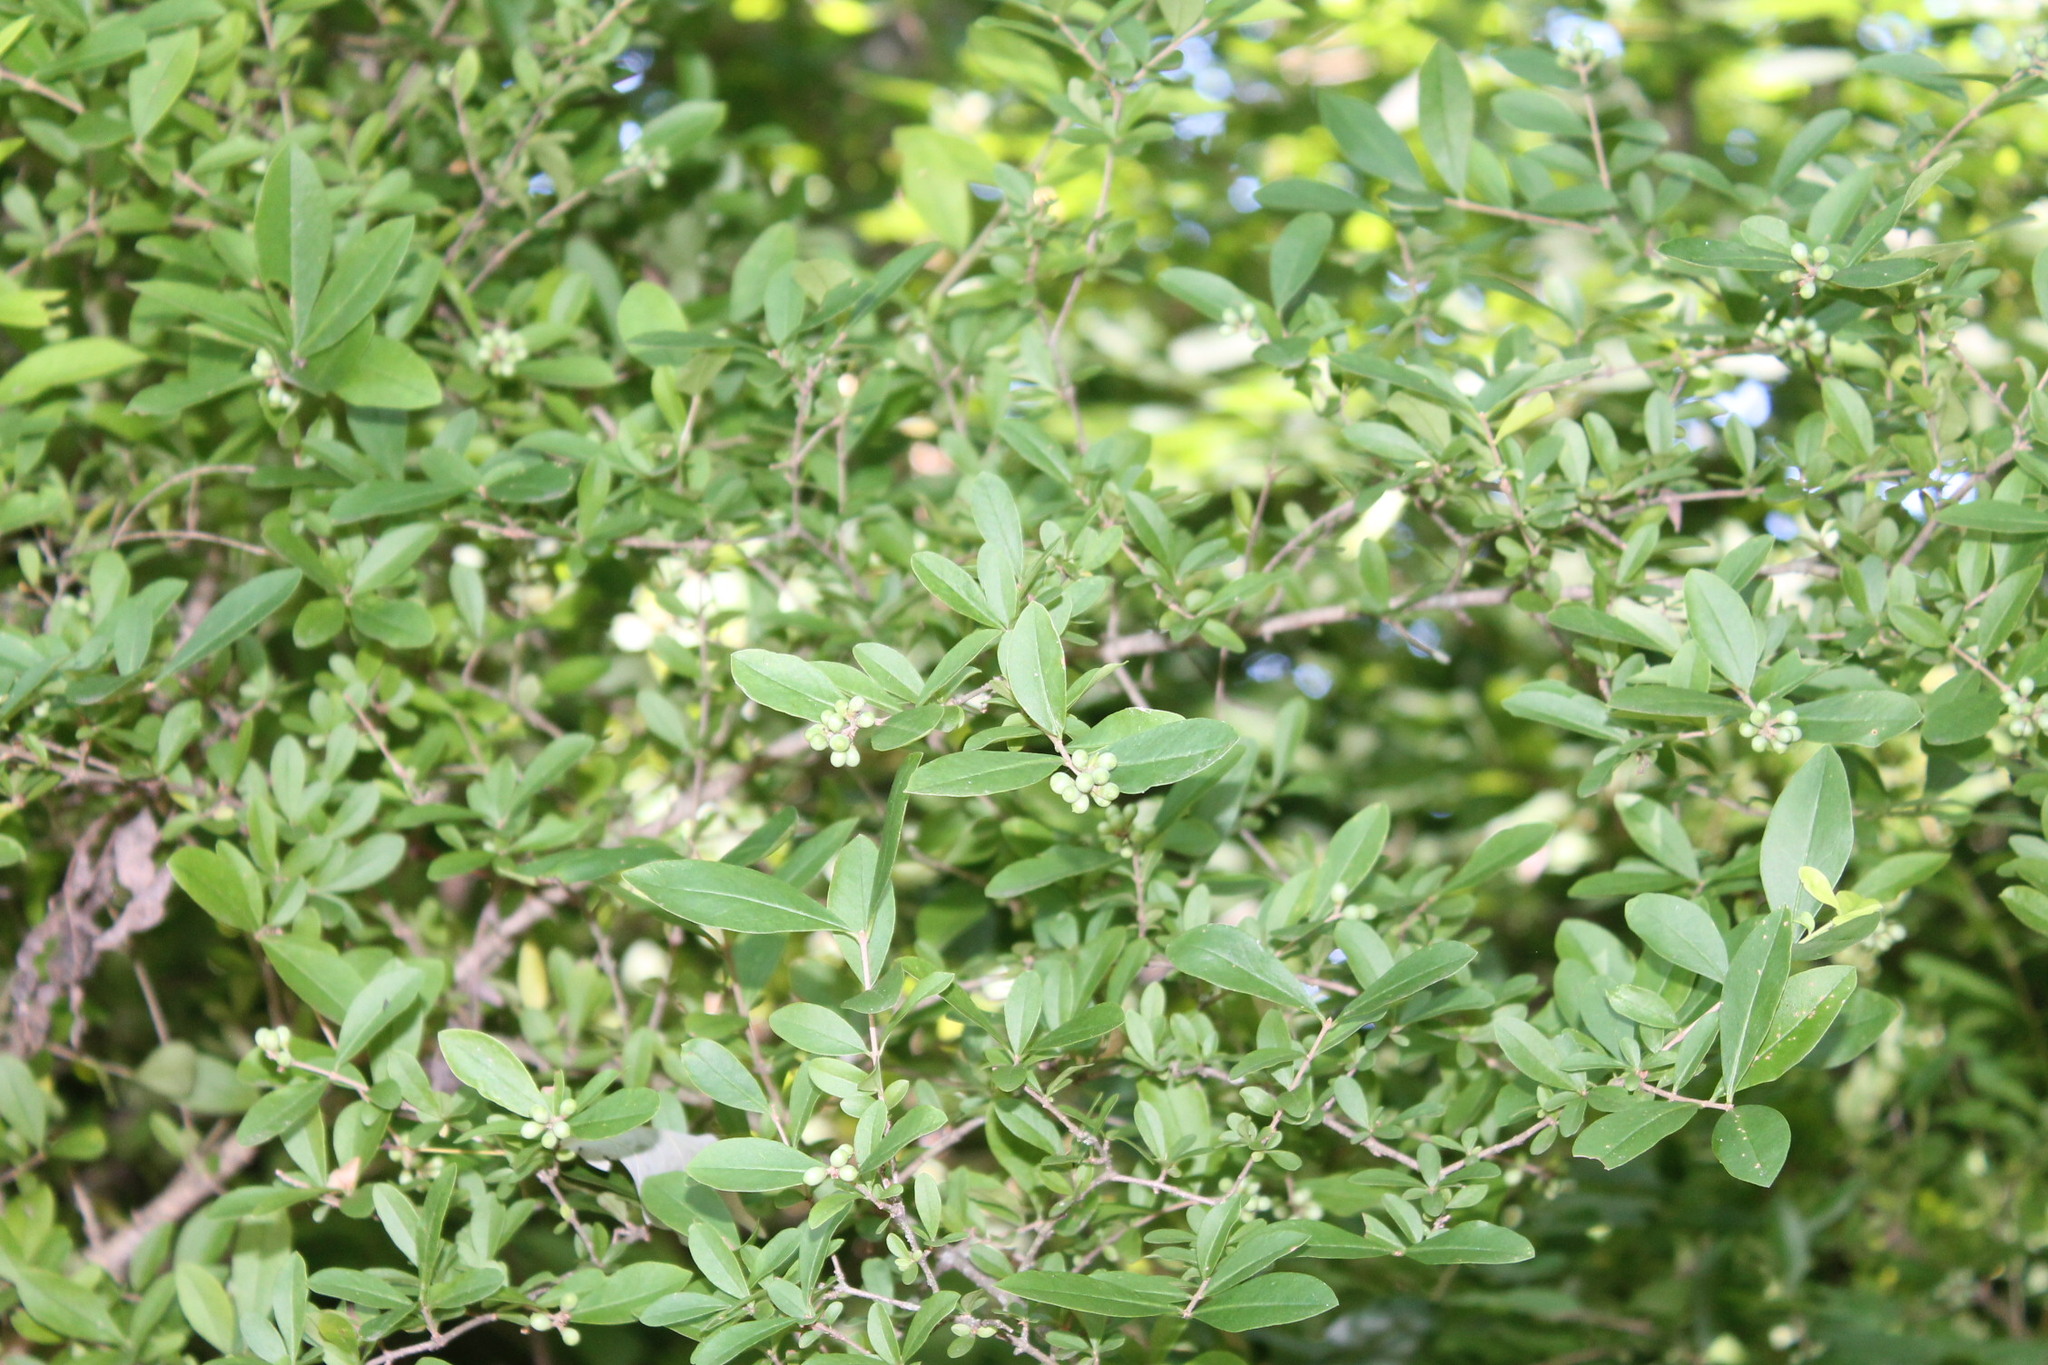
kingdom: Plantae
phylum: Tracheophyta
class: Magnoliopsida
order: Lamiales
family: Oleaceae
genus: Ligustrum
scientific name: Ligustrum obtusifolium
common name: Border privet
